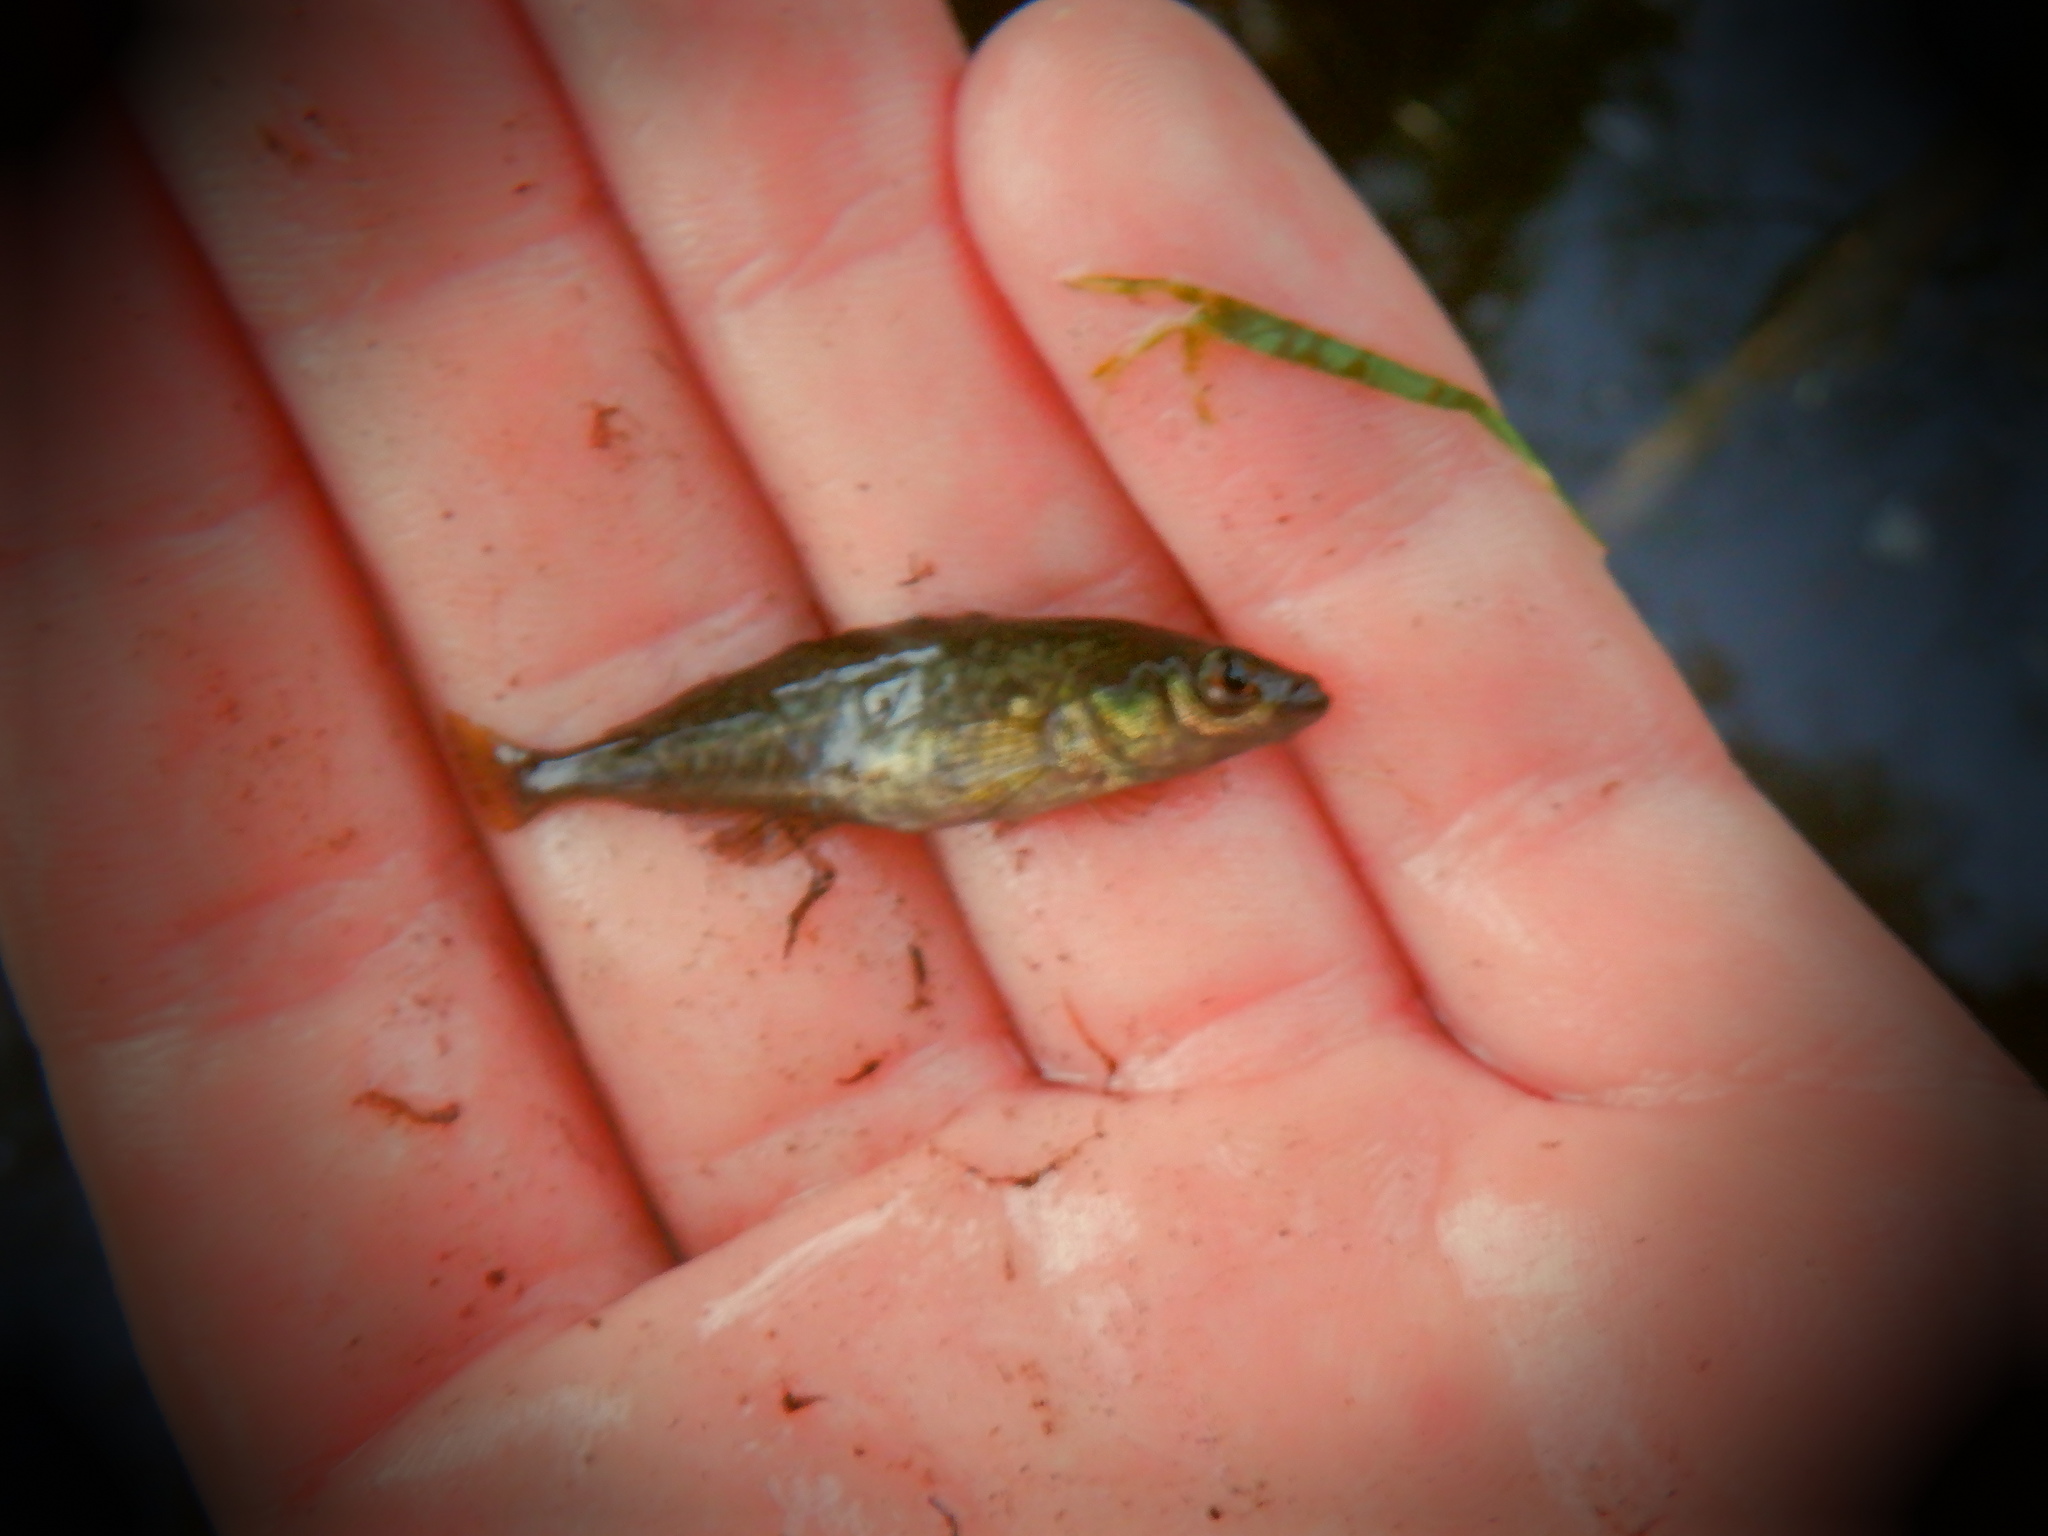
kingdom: Animalia
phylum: Chordata
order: Gasterosteiformes
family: Gasterosteidae
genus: Culaea
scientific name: Culaea inconstans
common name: Brook stickleback
